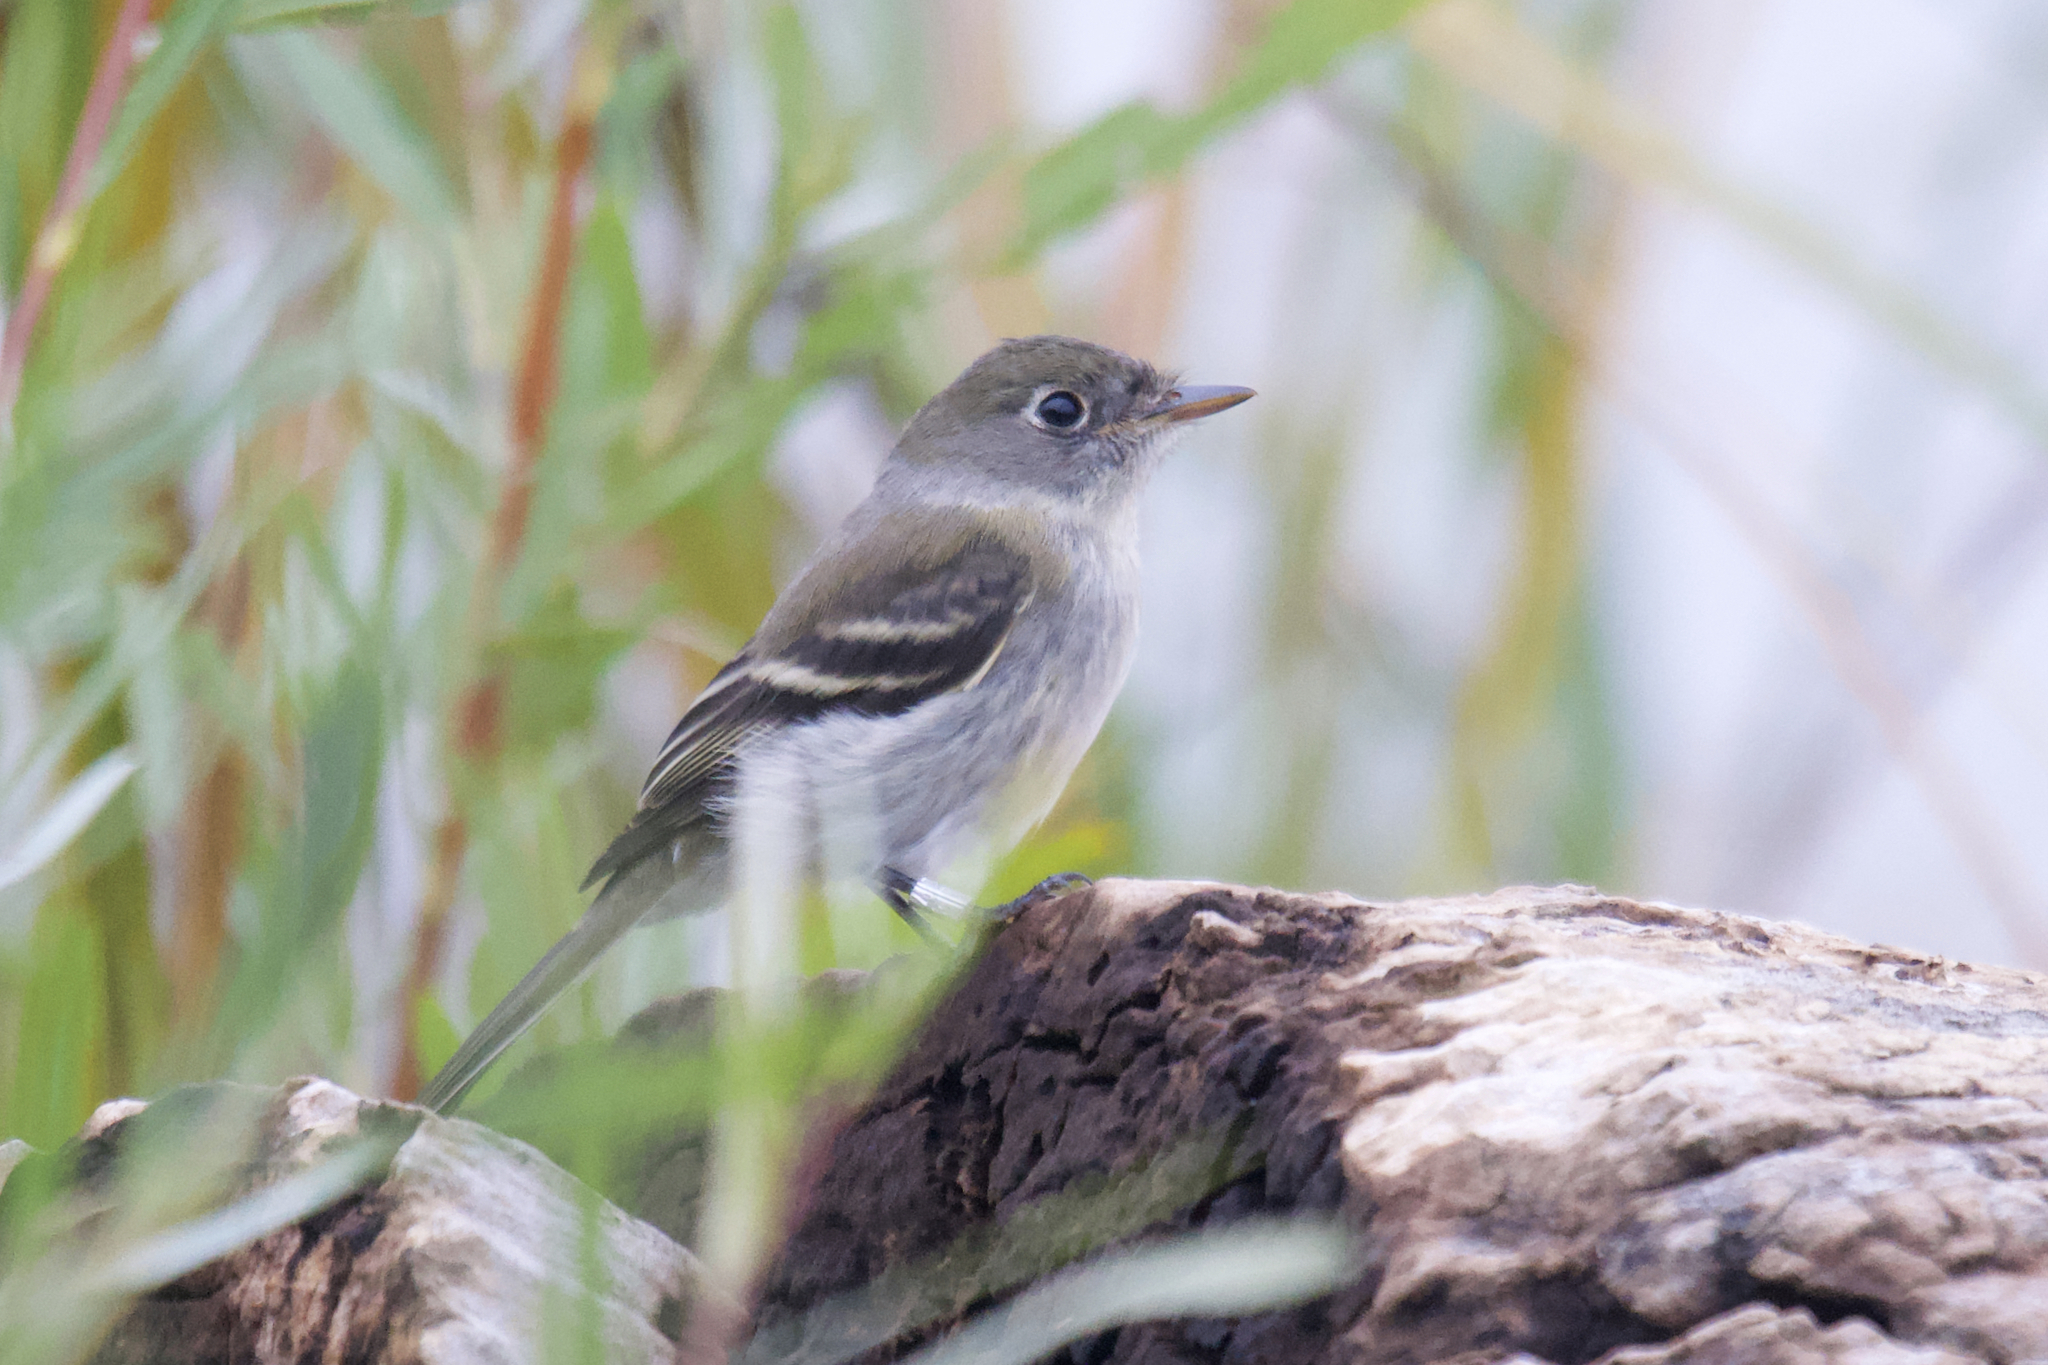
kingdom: Animalia
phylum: Chordata
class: Aves
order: Passeriformes
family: Tyrannidae
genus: Empidonax
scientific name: Empidonax minimus
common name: Least flycatcher
